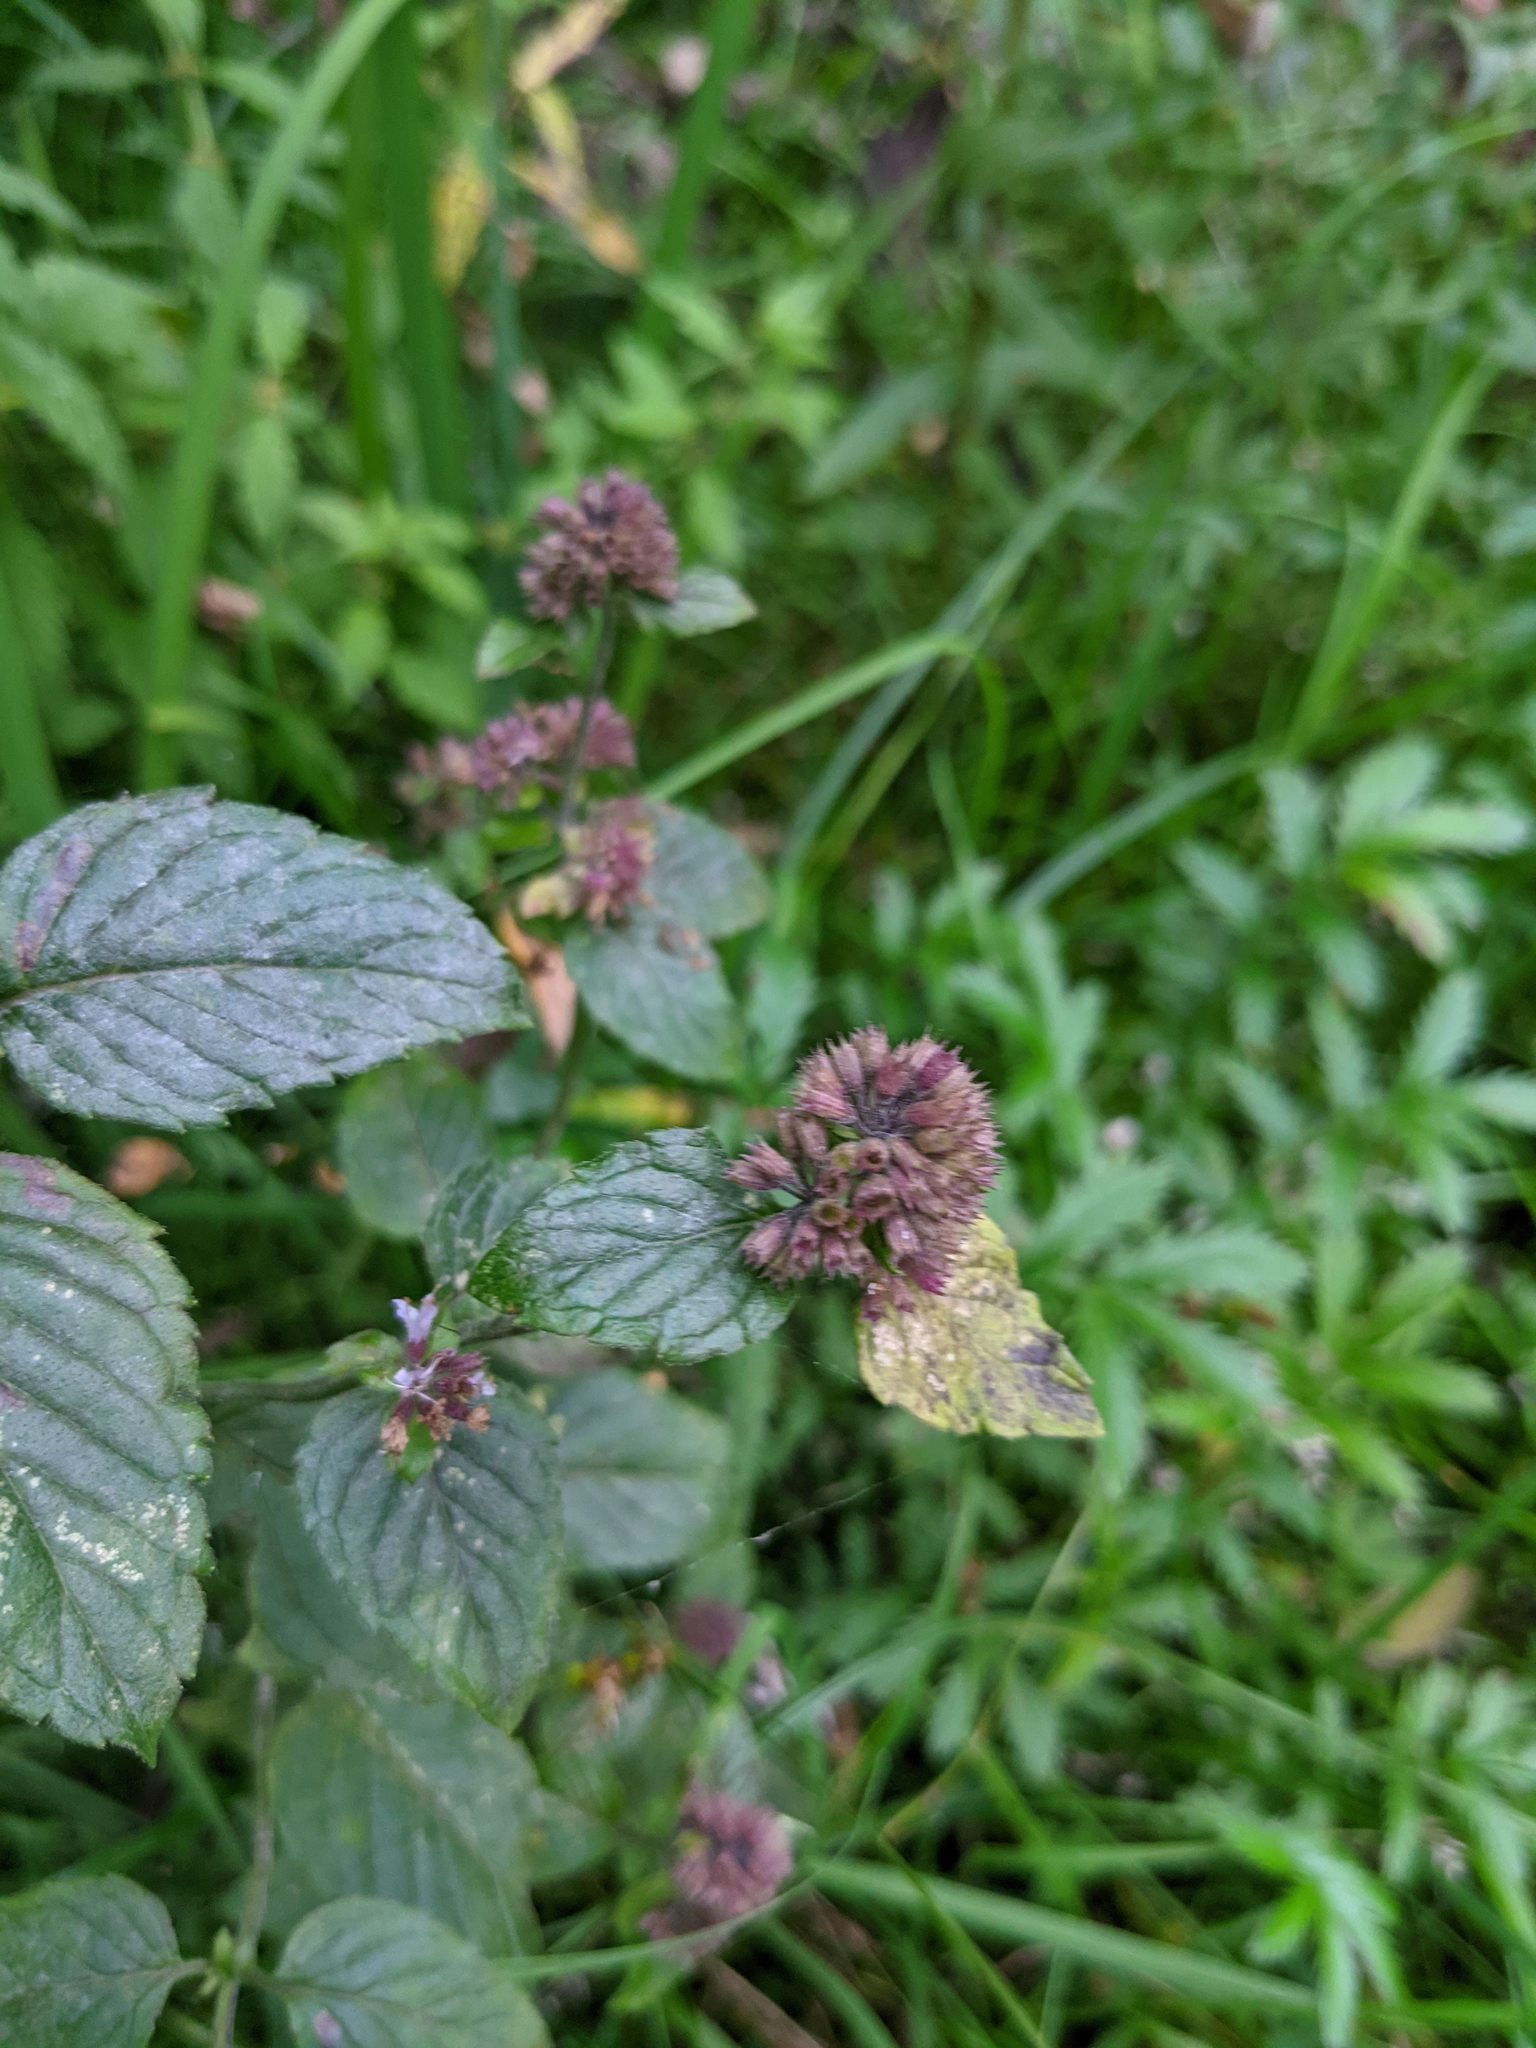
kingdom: Plantae
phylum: Tracheophyta
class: Magnoliopsida
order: Lamiales
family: Lamiaceae
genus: Origanum
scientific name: Origanum vulgare
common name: Wild marjoram
